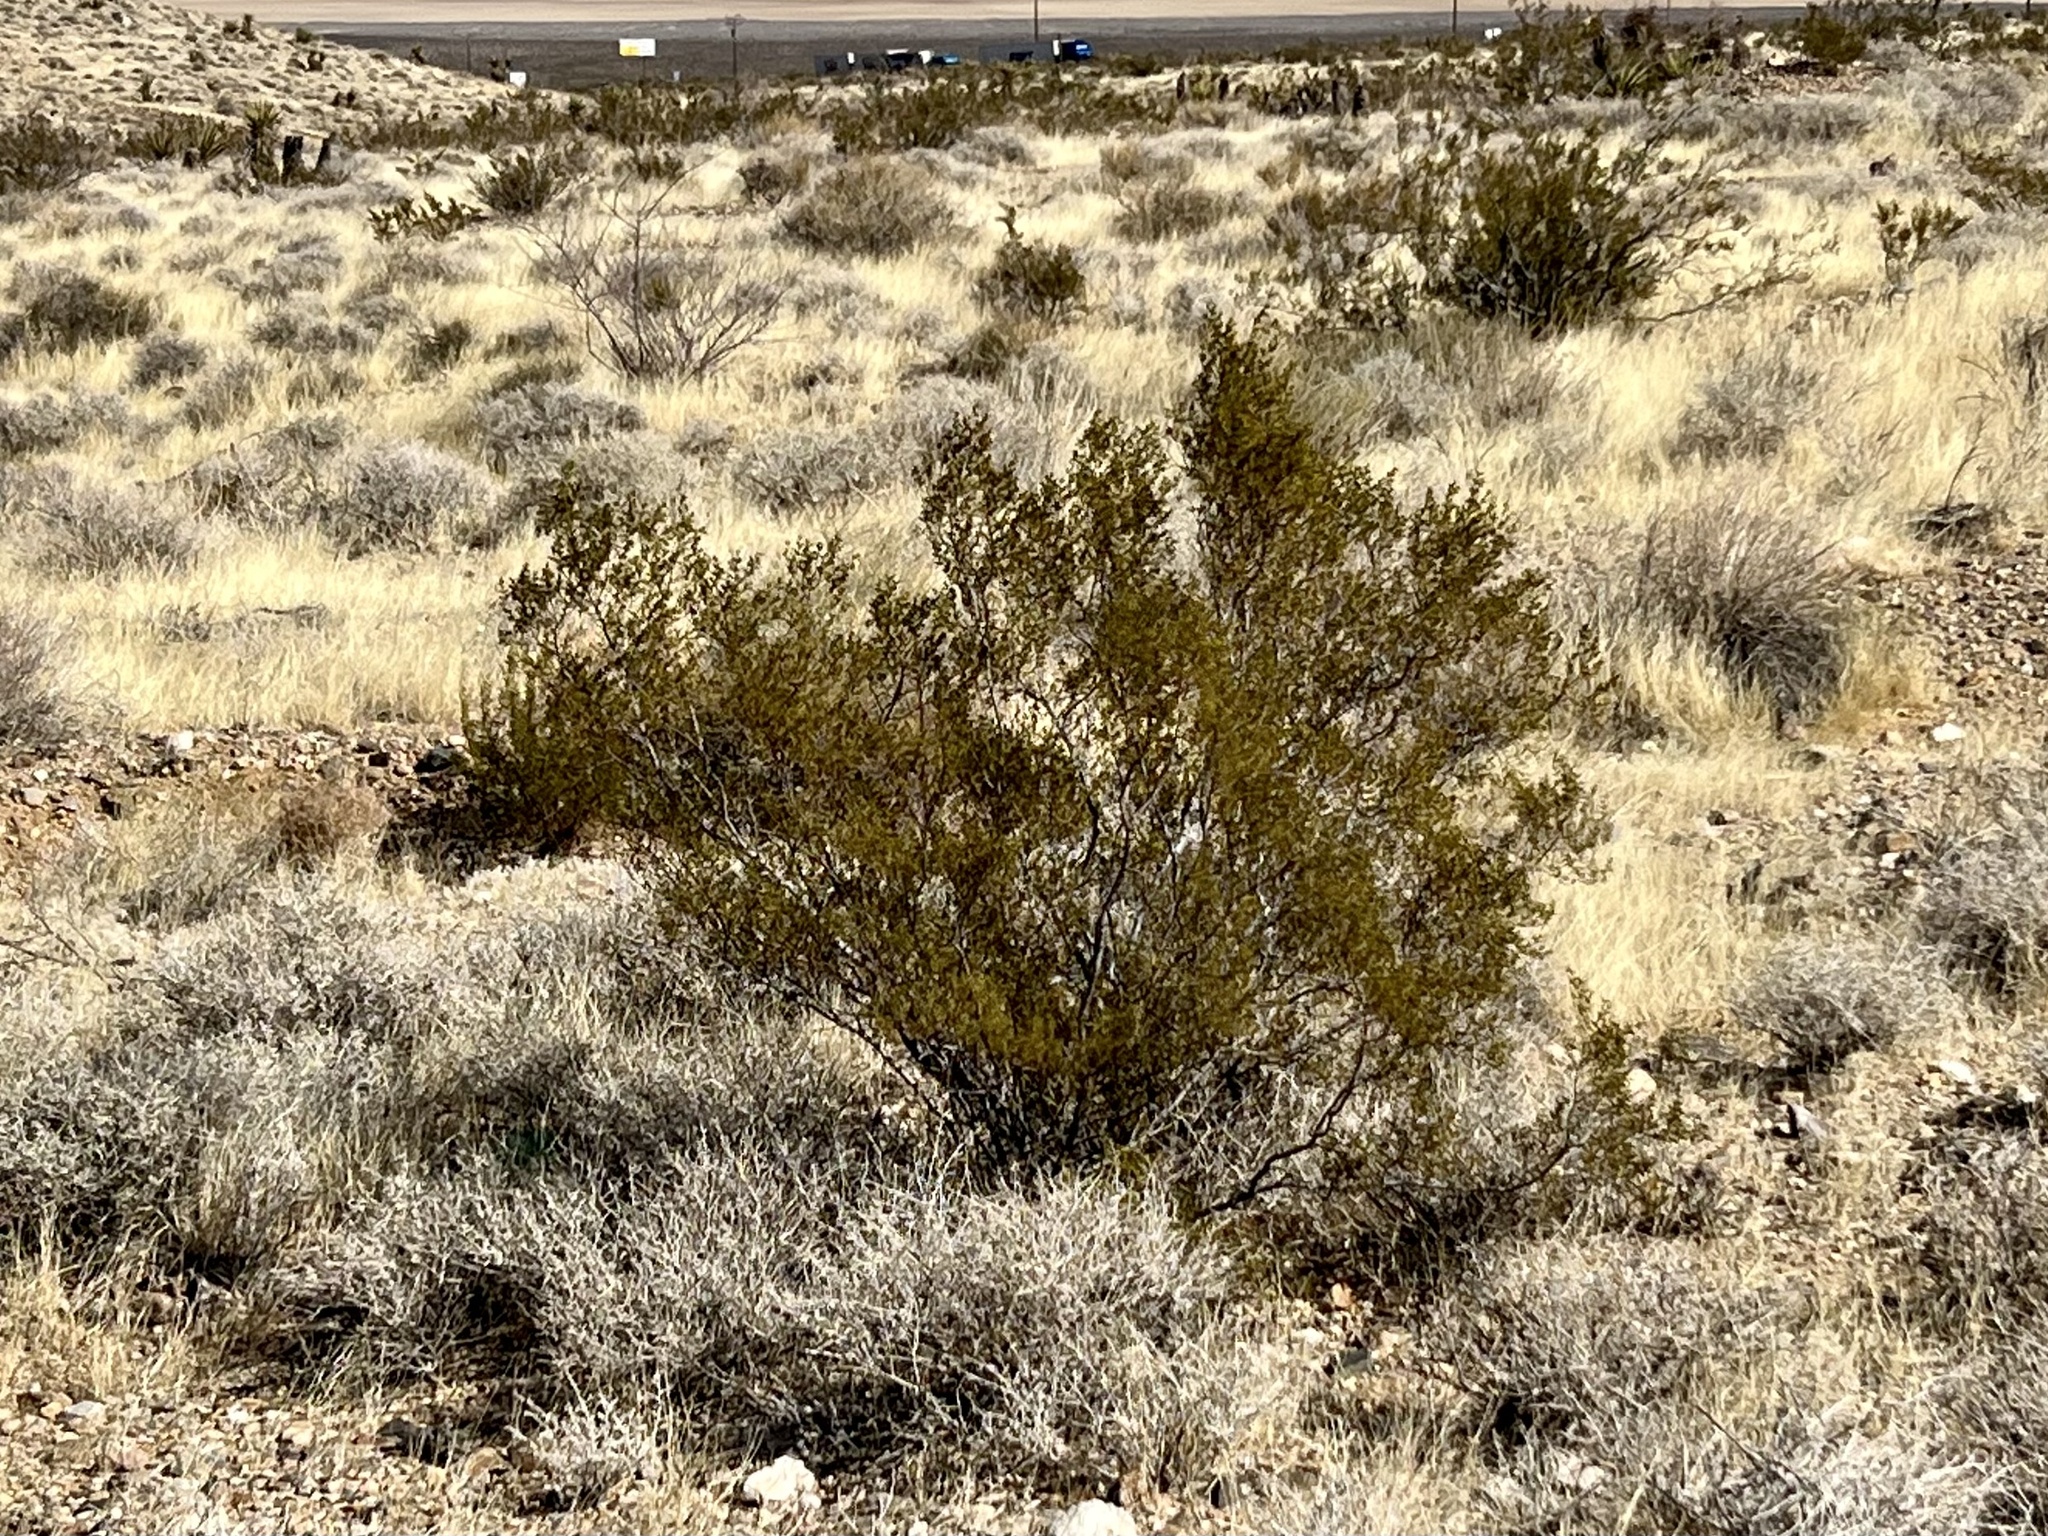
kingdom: Plantae
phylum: Tracheophyta
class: Magnoliopsida
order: Zygophyllales
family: Zygophyllaceae
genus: Larrea
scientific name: Larrea tridentata
